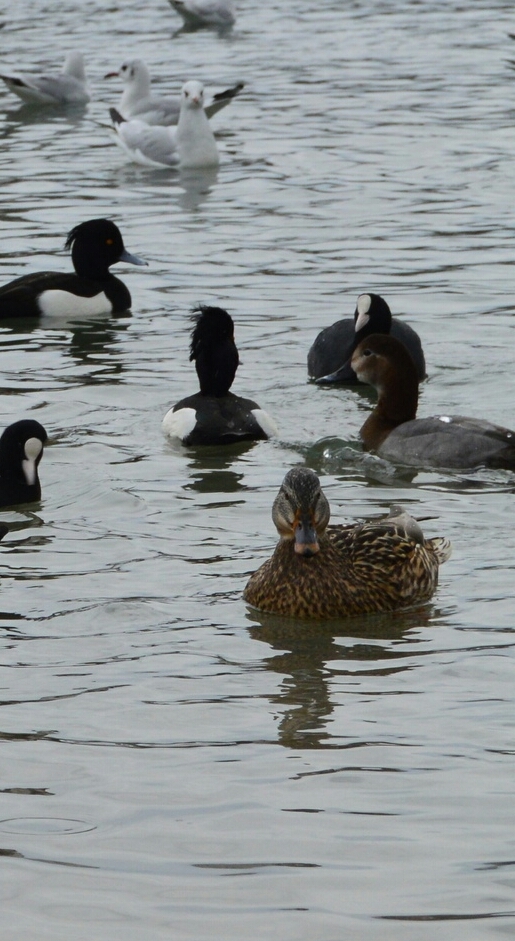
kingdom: Animalia
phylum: Chordata
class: Aves
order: Anseriformes
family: Anatidae
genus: Aythya
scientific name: Aythya ferina
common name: Common pochard
